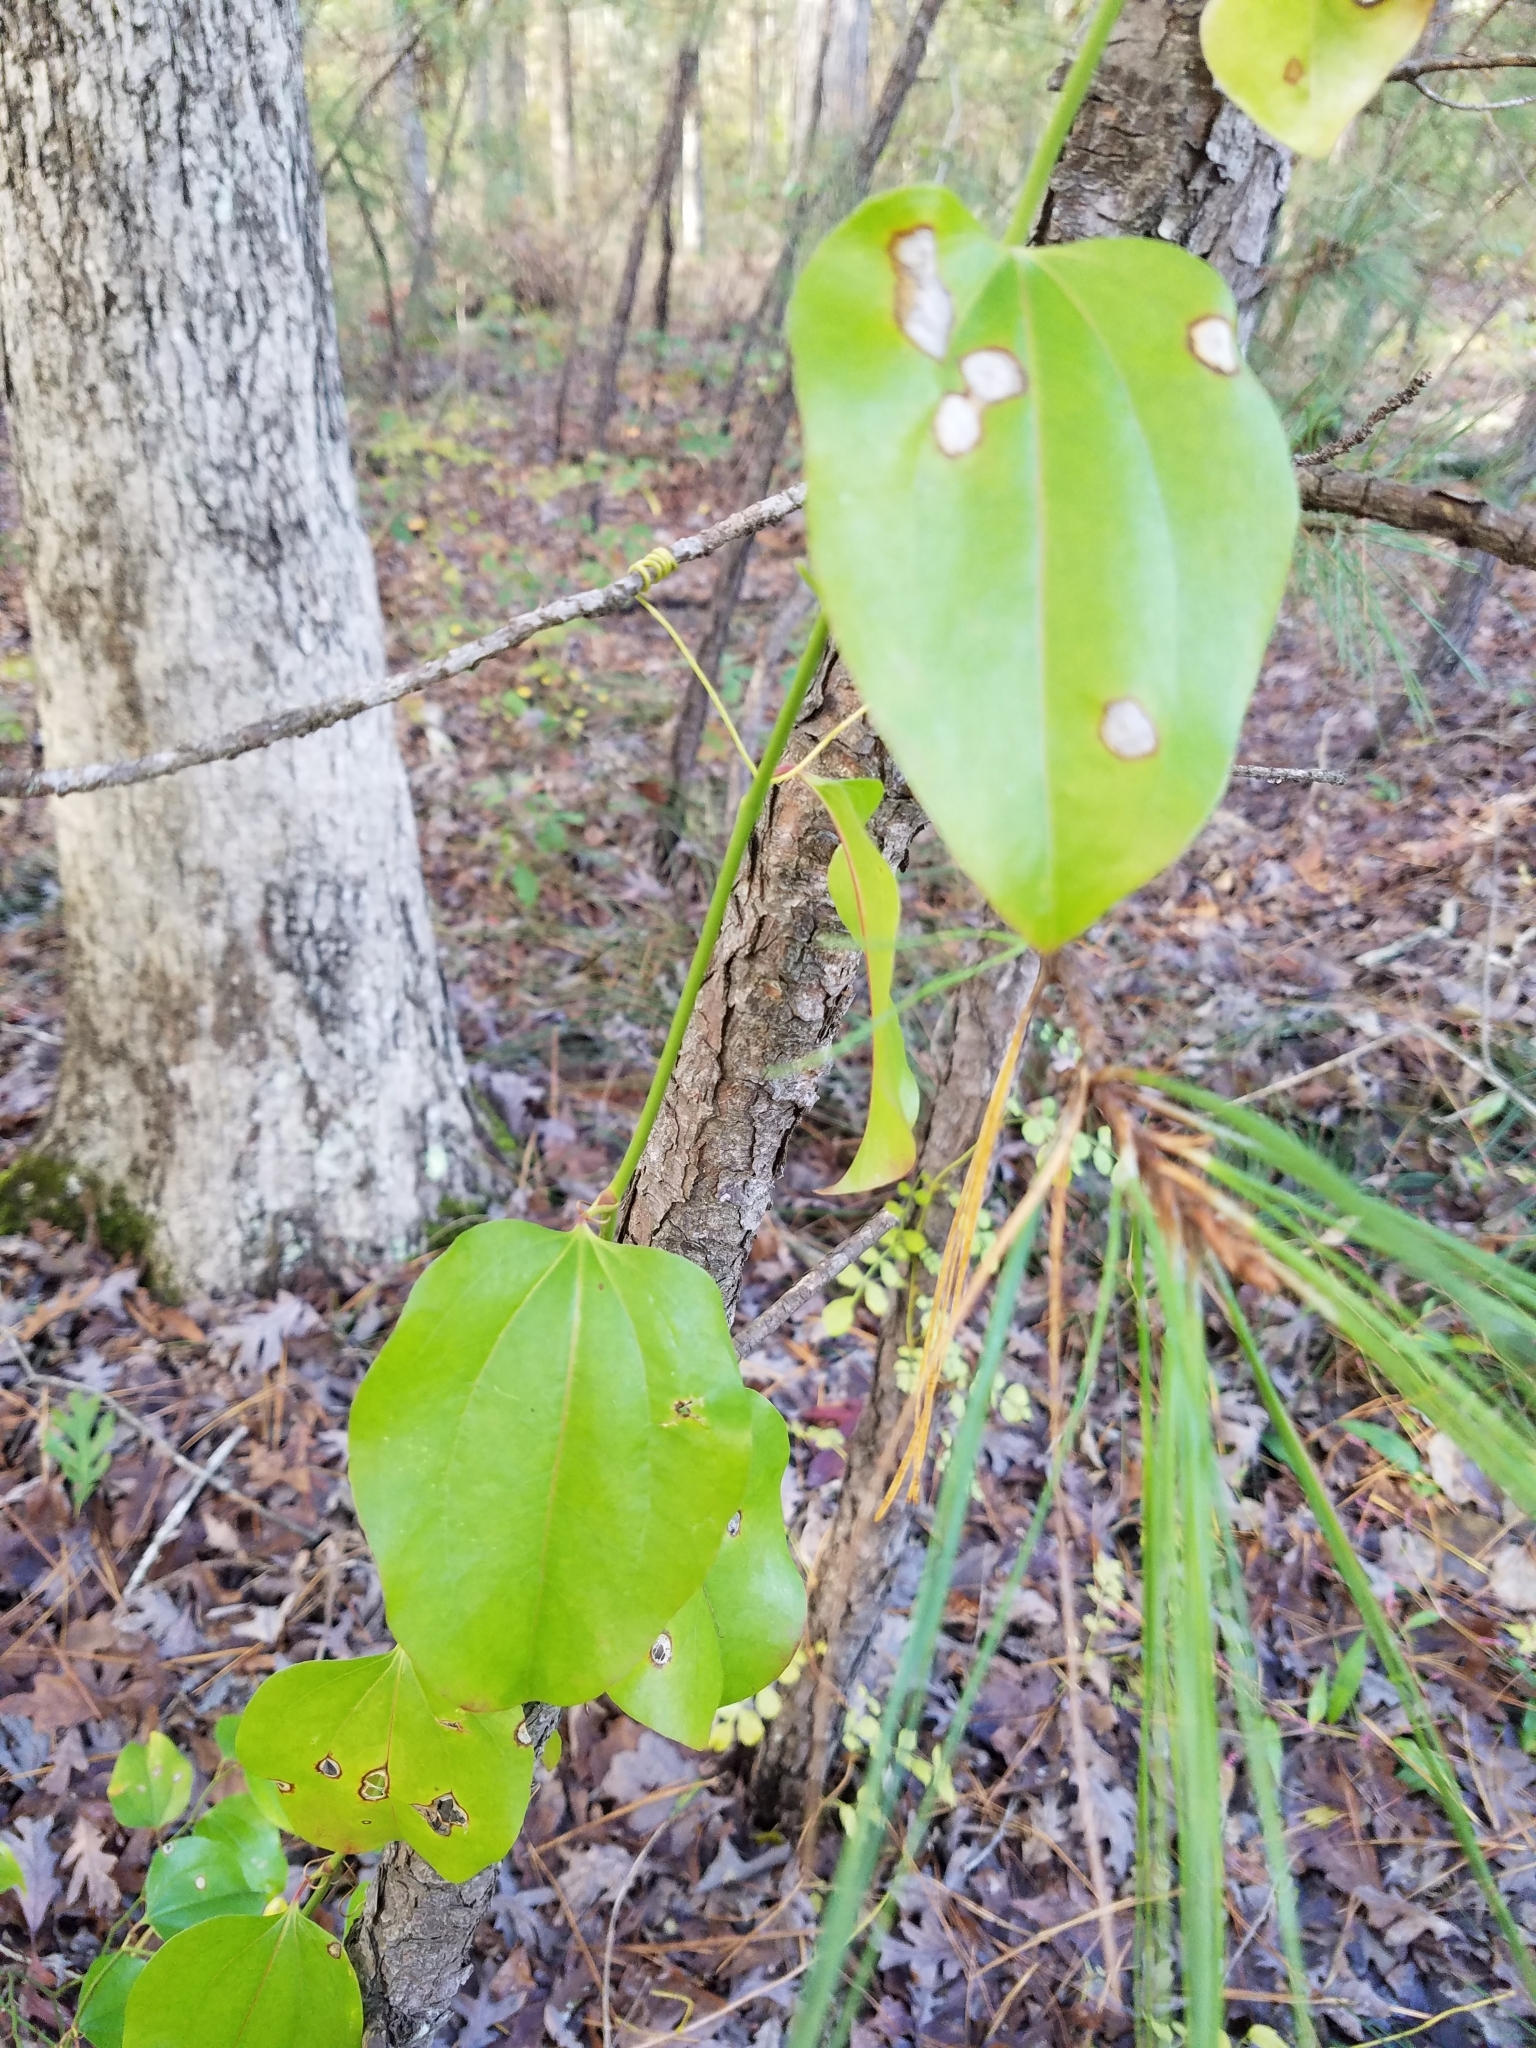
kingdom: Plantae
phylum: Tracheophyta
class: Liliopsida
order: Liliales
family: Smilacaceae
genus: Smilax
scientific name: Smilax rotundifolia
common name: Bullbriar
